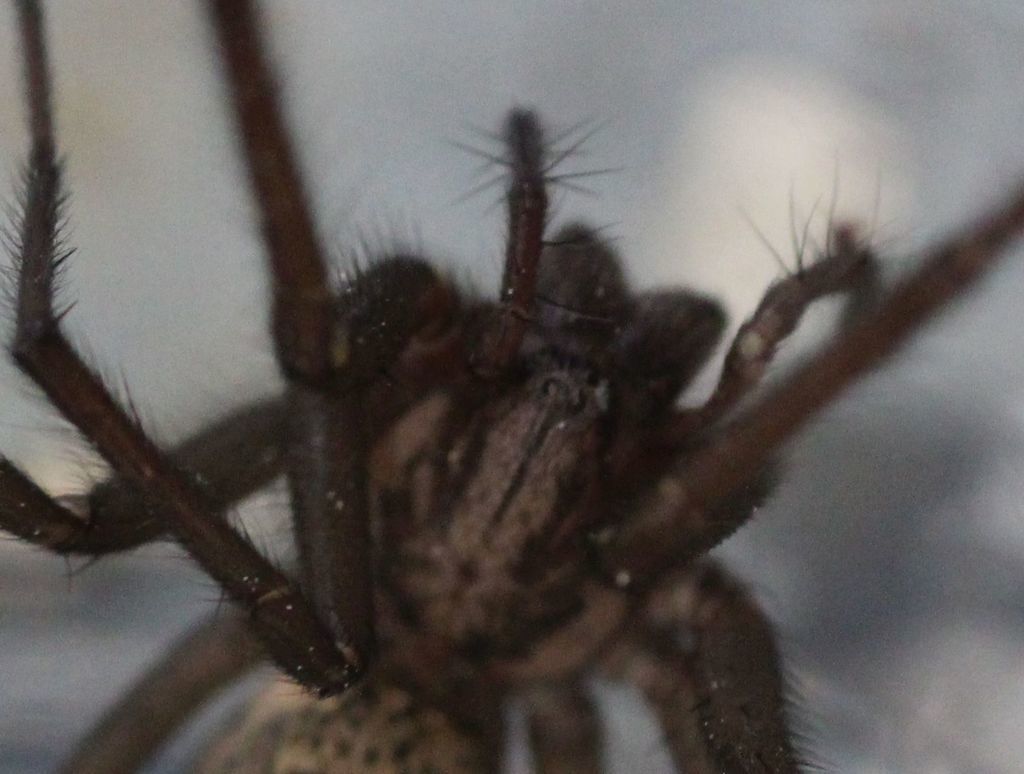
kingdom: Animalia
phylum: Arthropoda
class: Arachnida
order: Araneae
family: Agelenidae
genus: Eratigena
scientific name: Eratigena atrica
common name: Giant house spider
